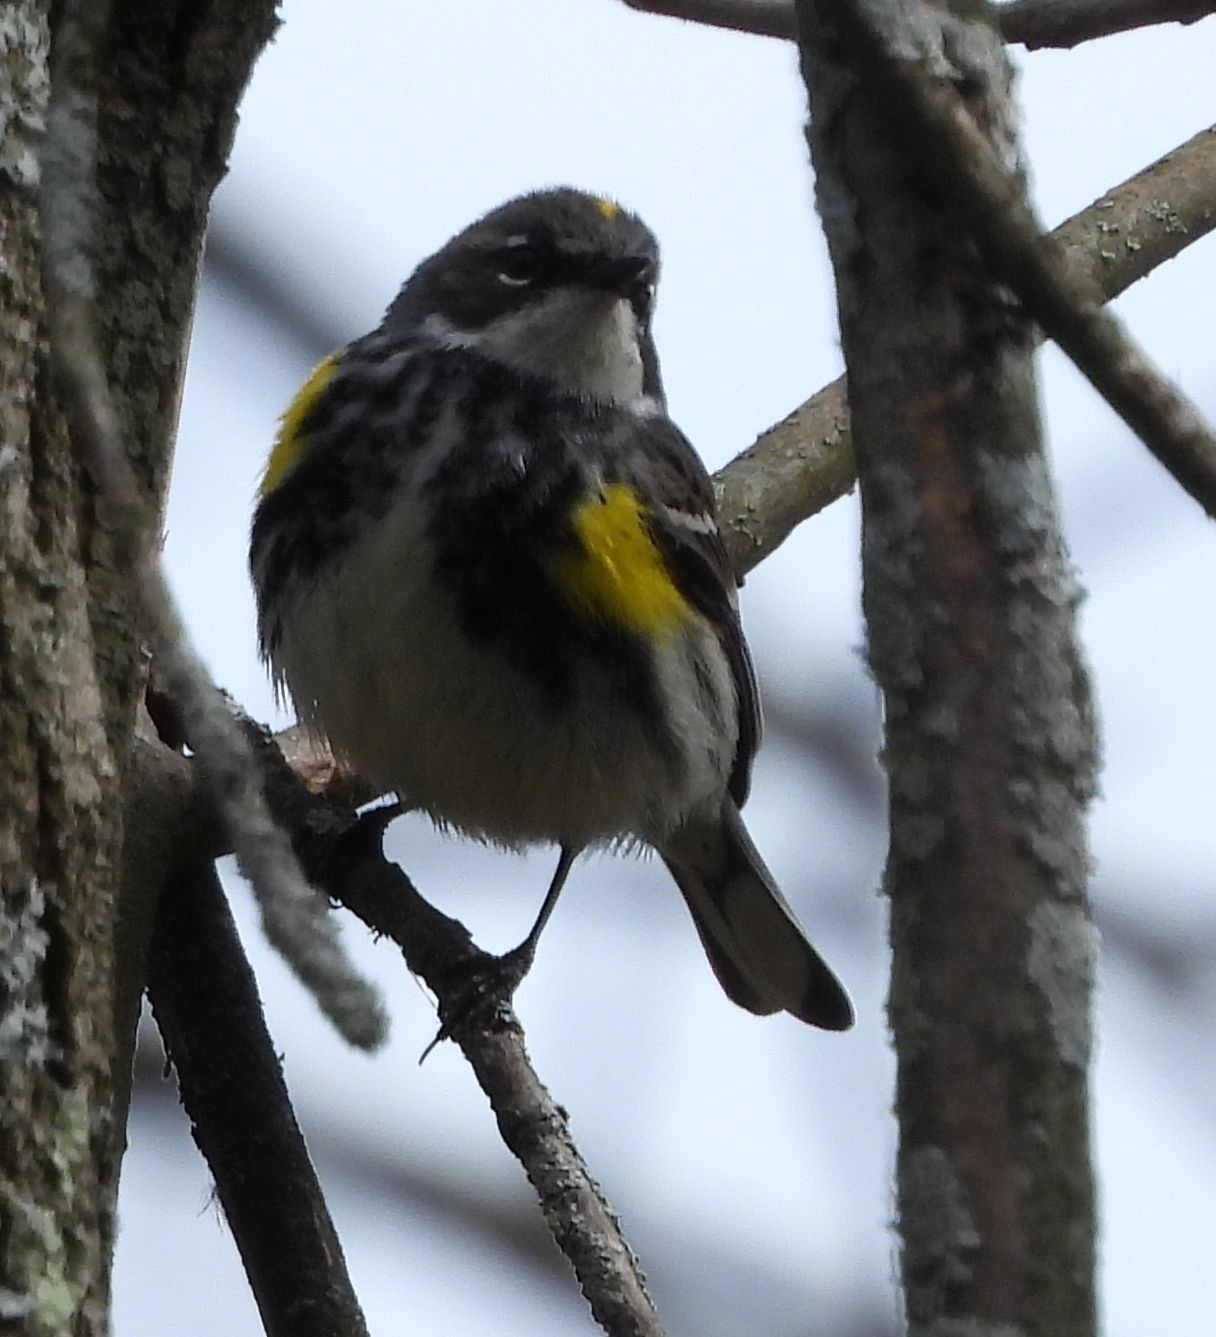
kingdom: Animalia
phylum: Chordata
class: Aves
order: Passeriformes
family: Parulidae
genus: Setophaga
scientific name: Setophaga coronata
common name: Myrtle warbler
